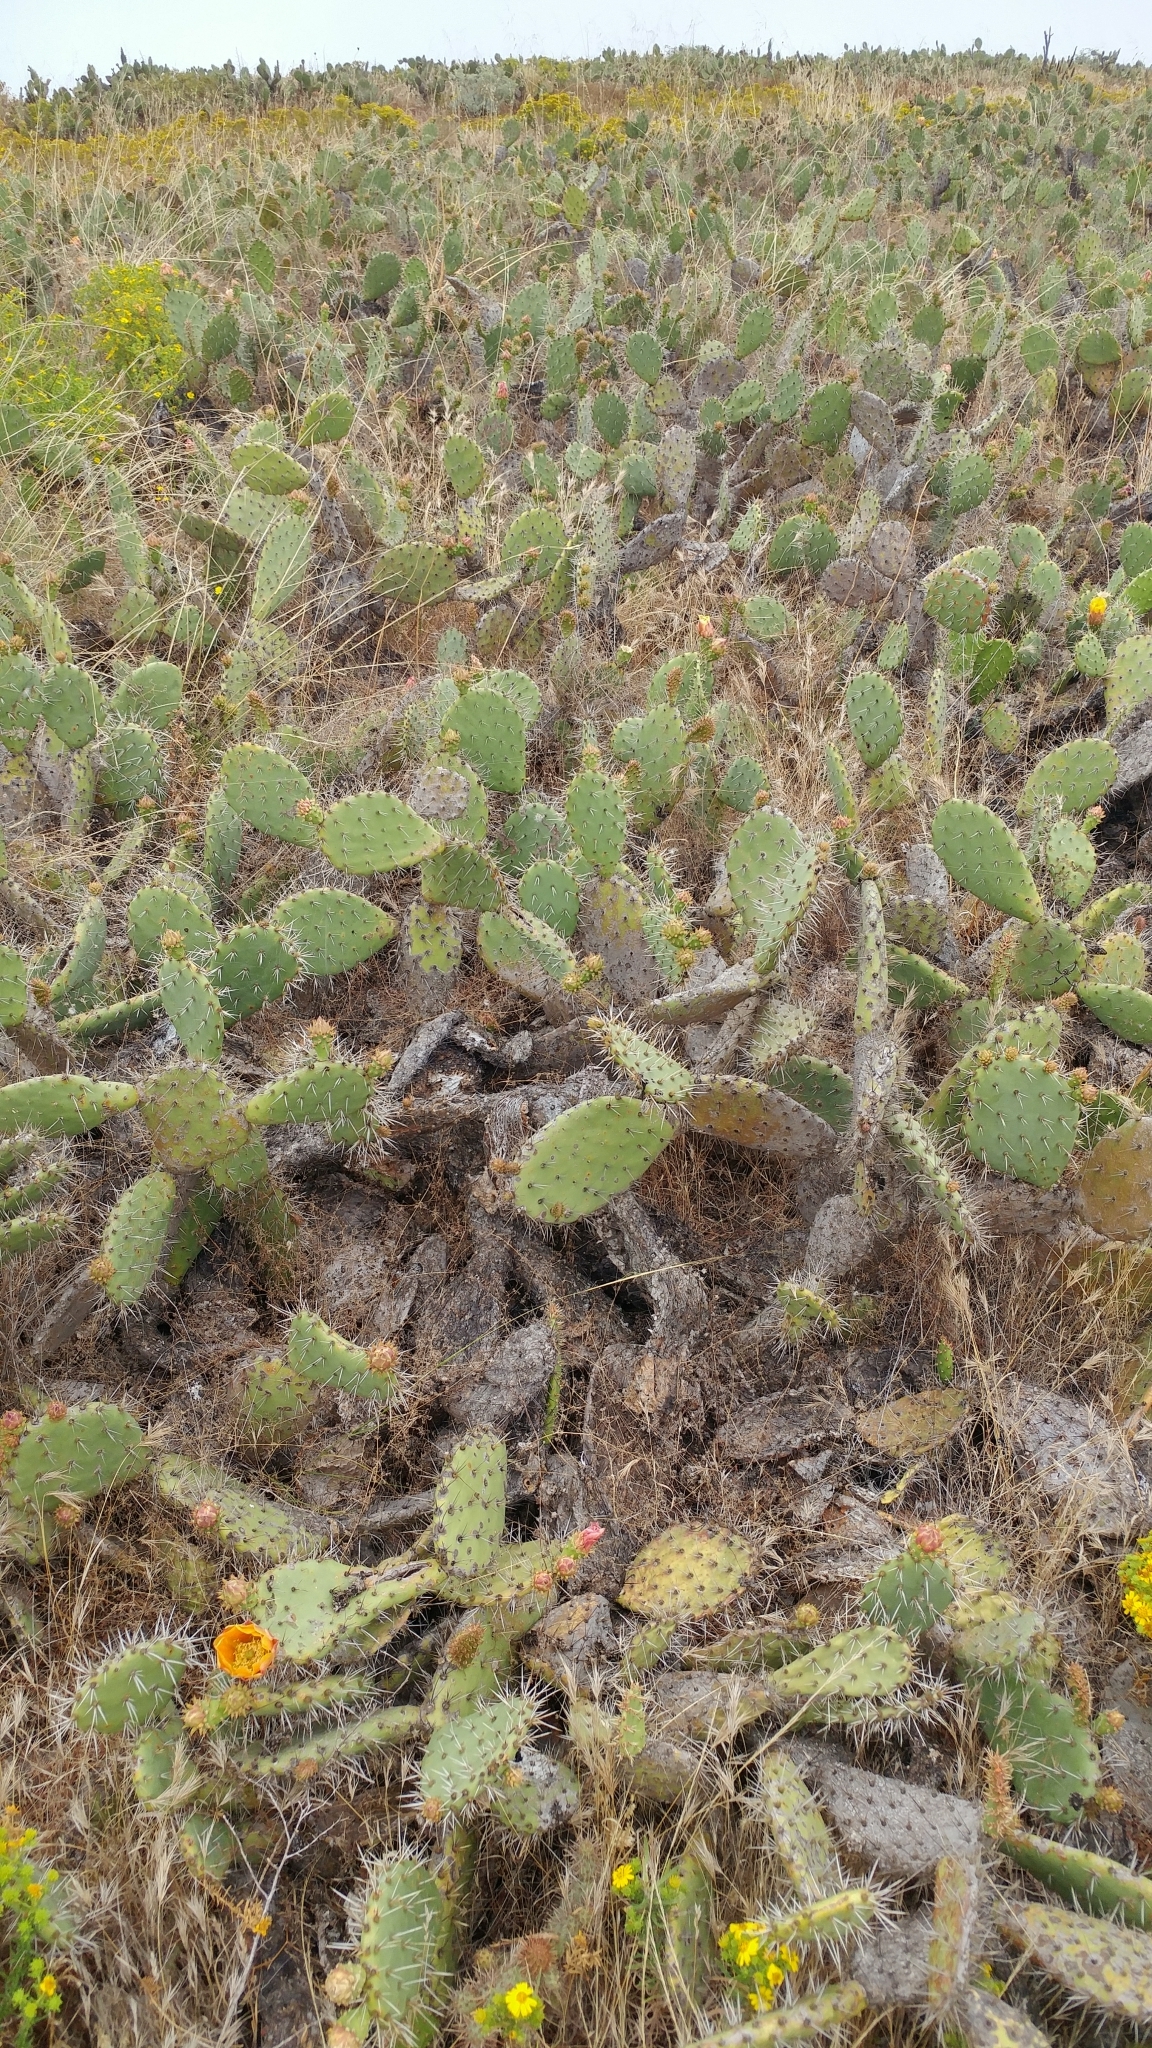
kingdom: Plantae
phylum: Tracheophyta
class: Magnoliopsida
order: Caryophyllales
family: Cactaceae
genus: Opuntia
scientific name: Opuntia littoralis
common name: Coastal prickly-pear
